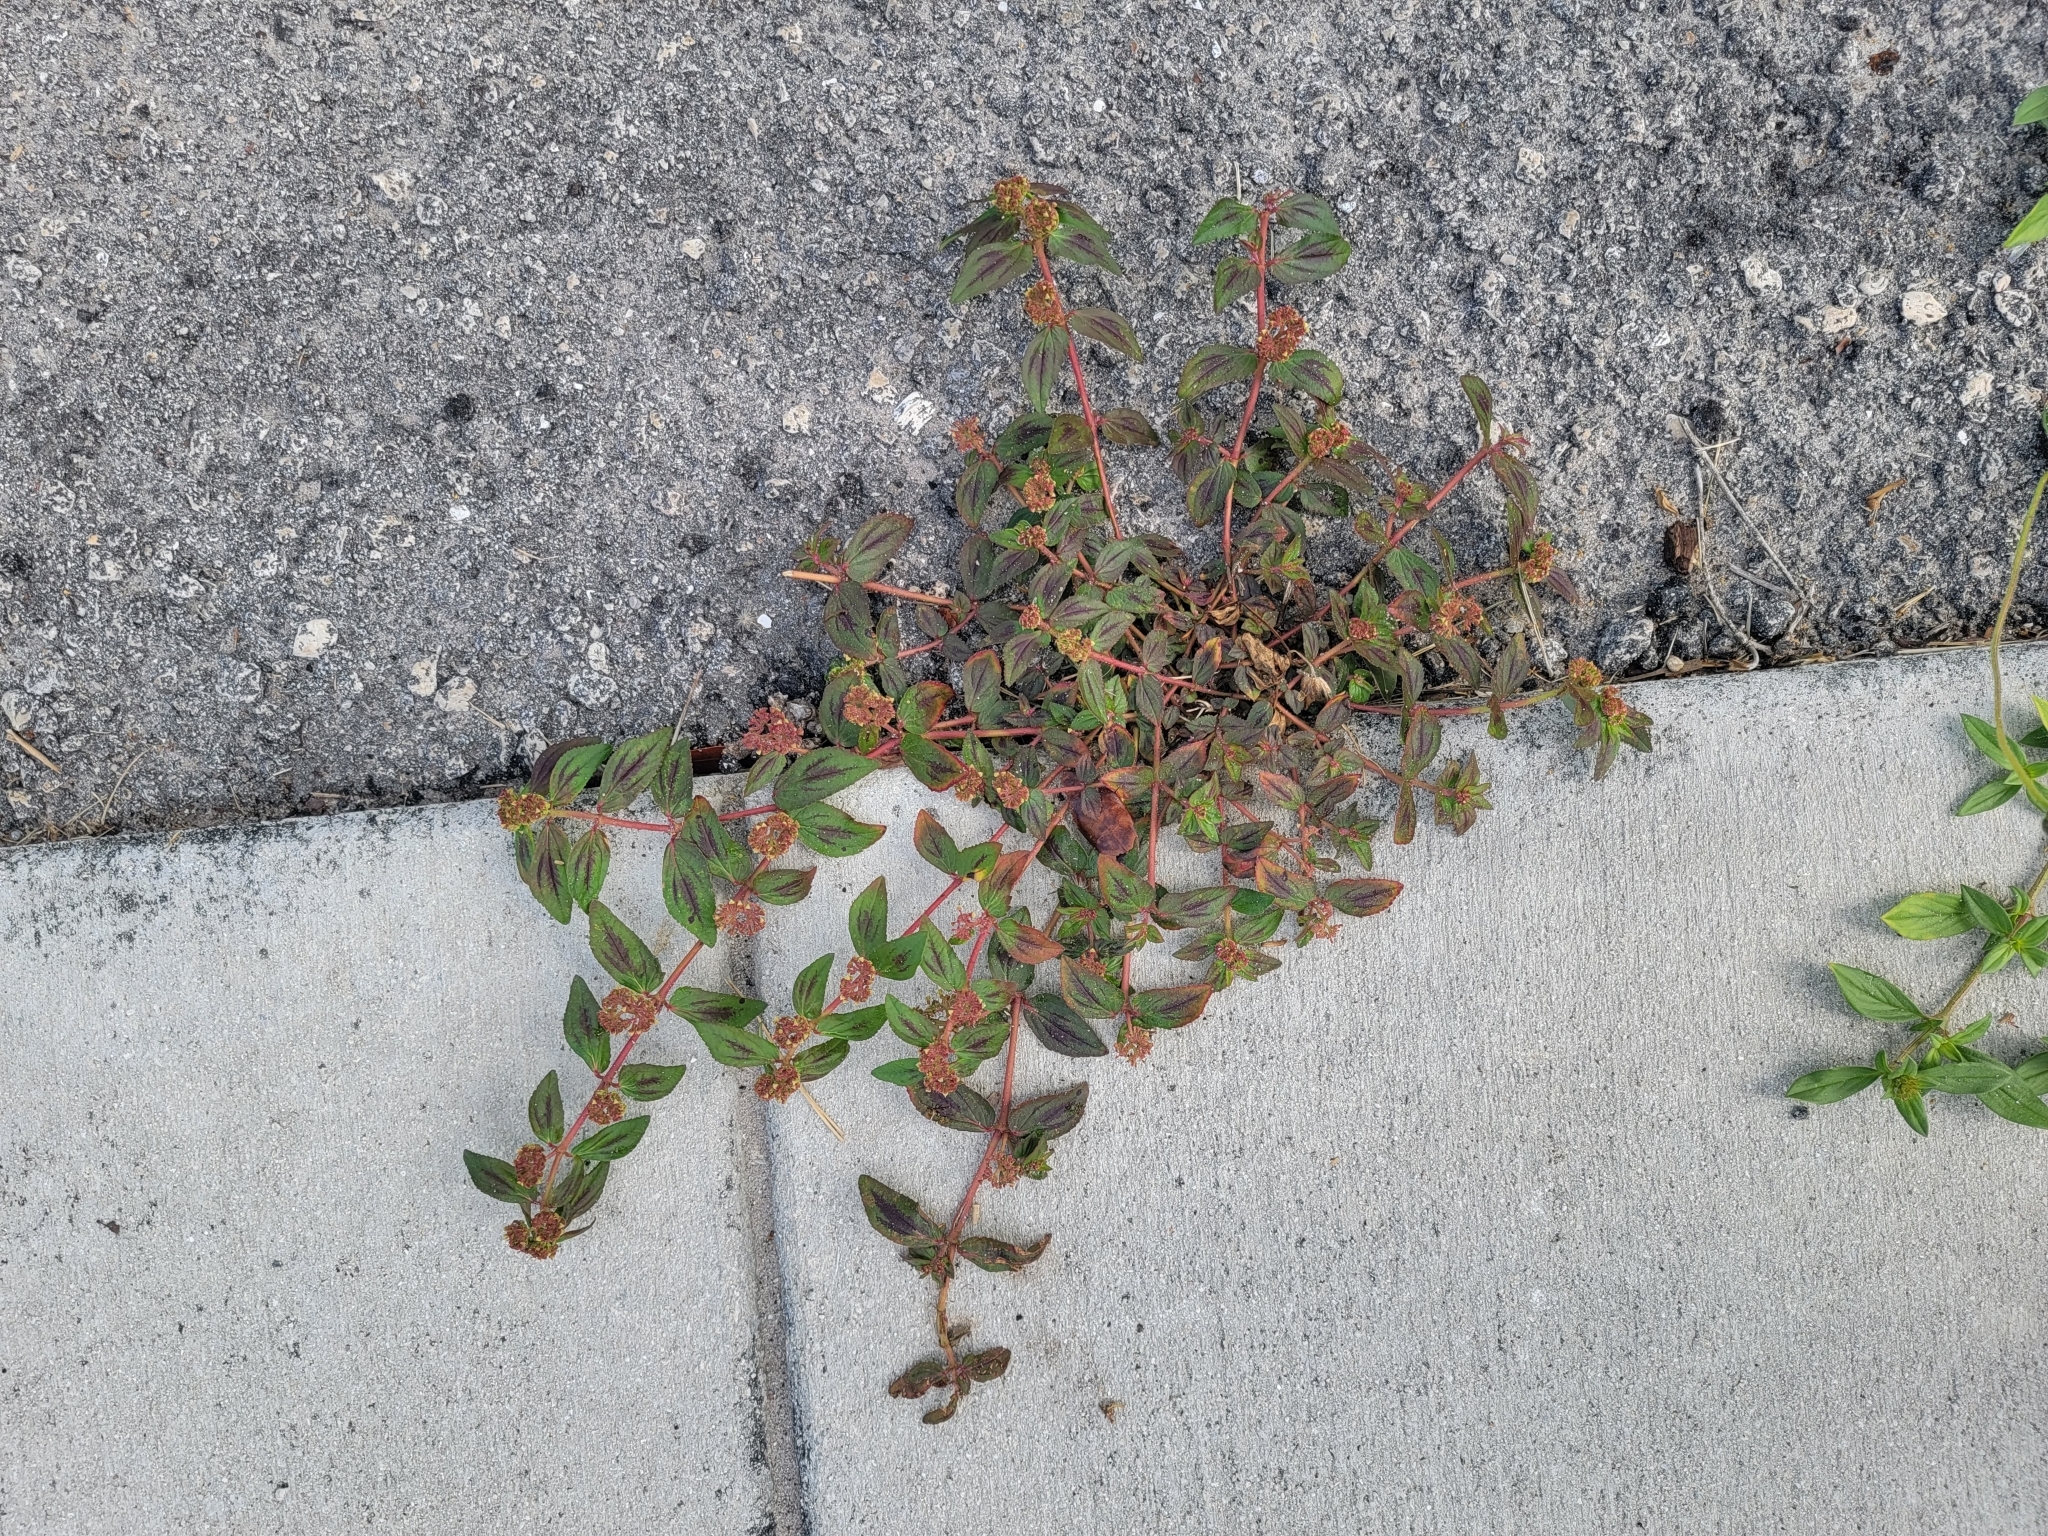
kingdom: Plantae
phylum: Tracheophyta
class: Magnoliopsida
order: Malpighiales
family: Euphorbiaceae
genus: Euphorbia
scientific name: Euphorbia hirta
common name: Pillpod sandmat
